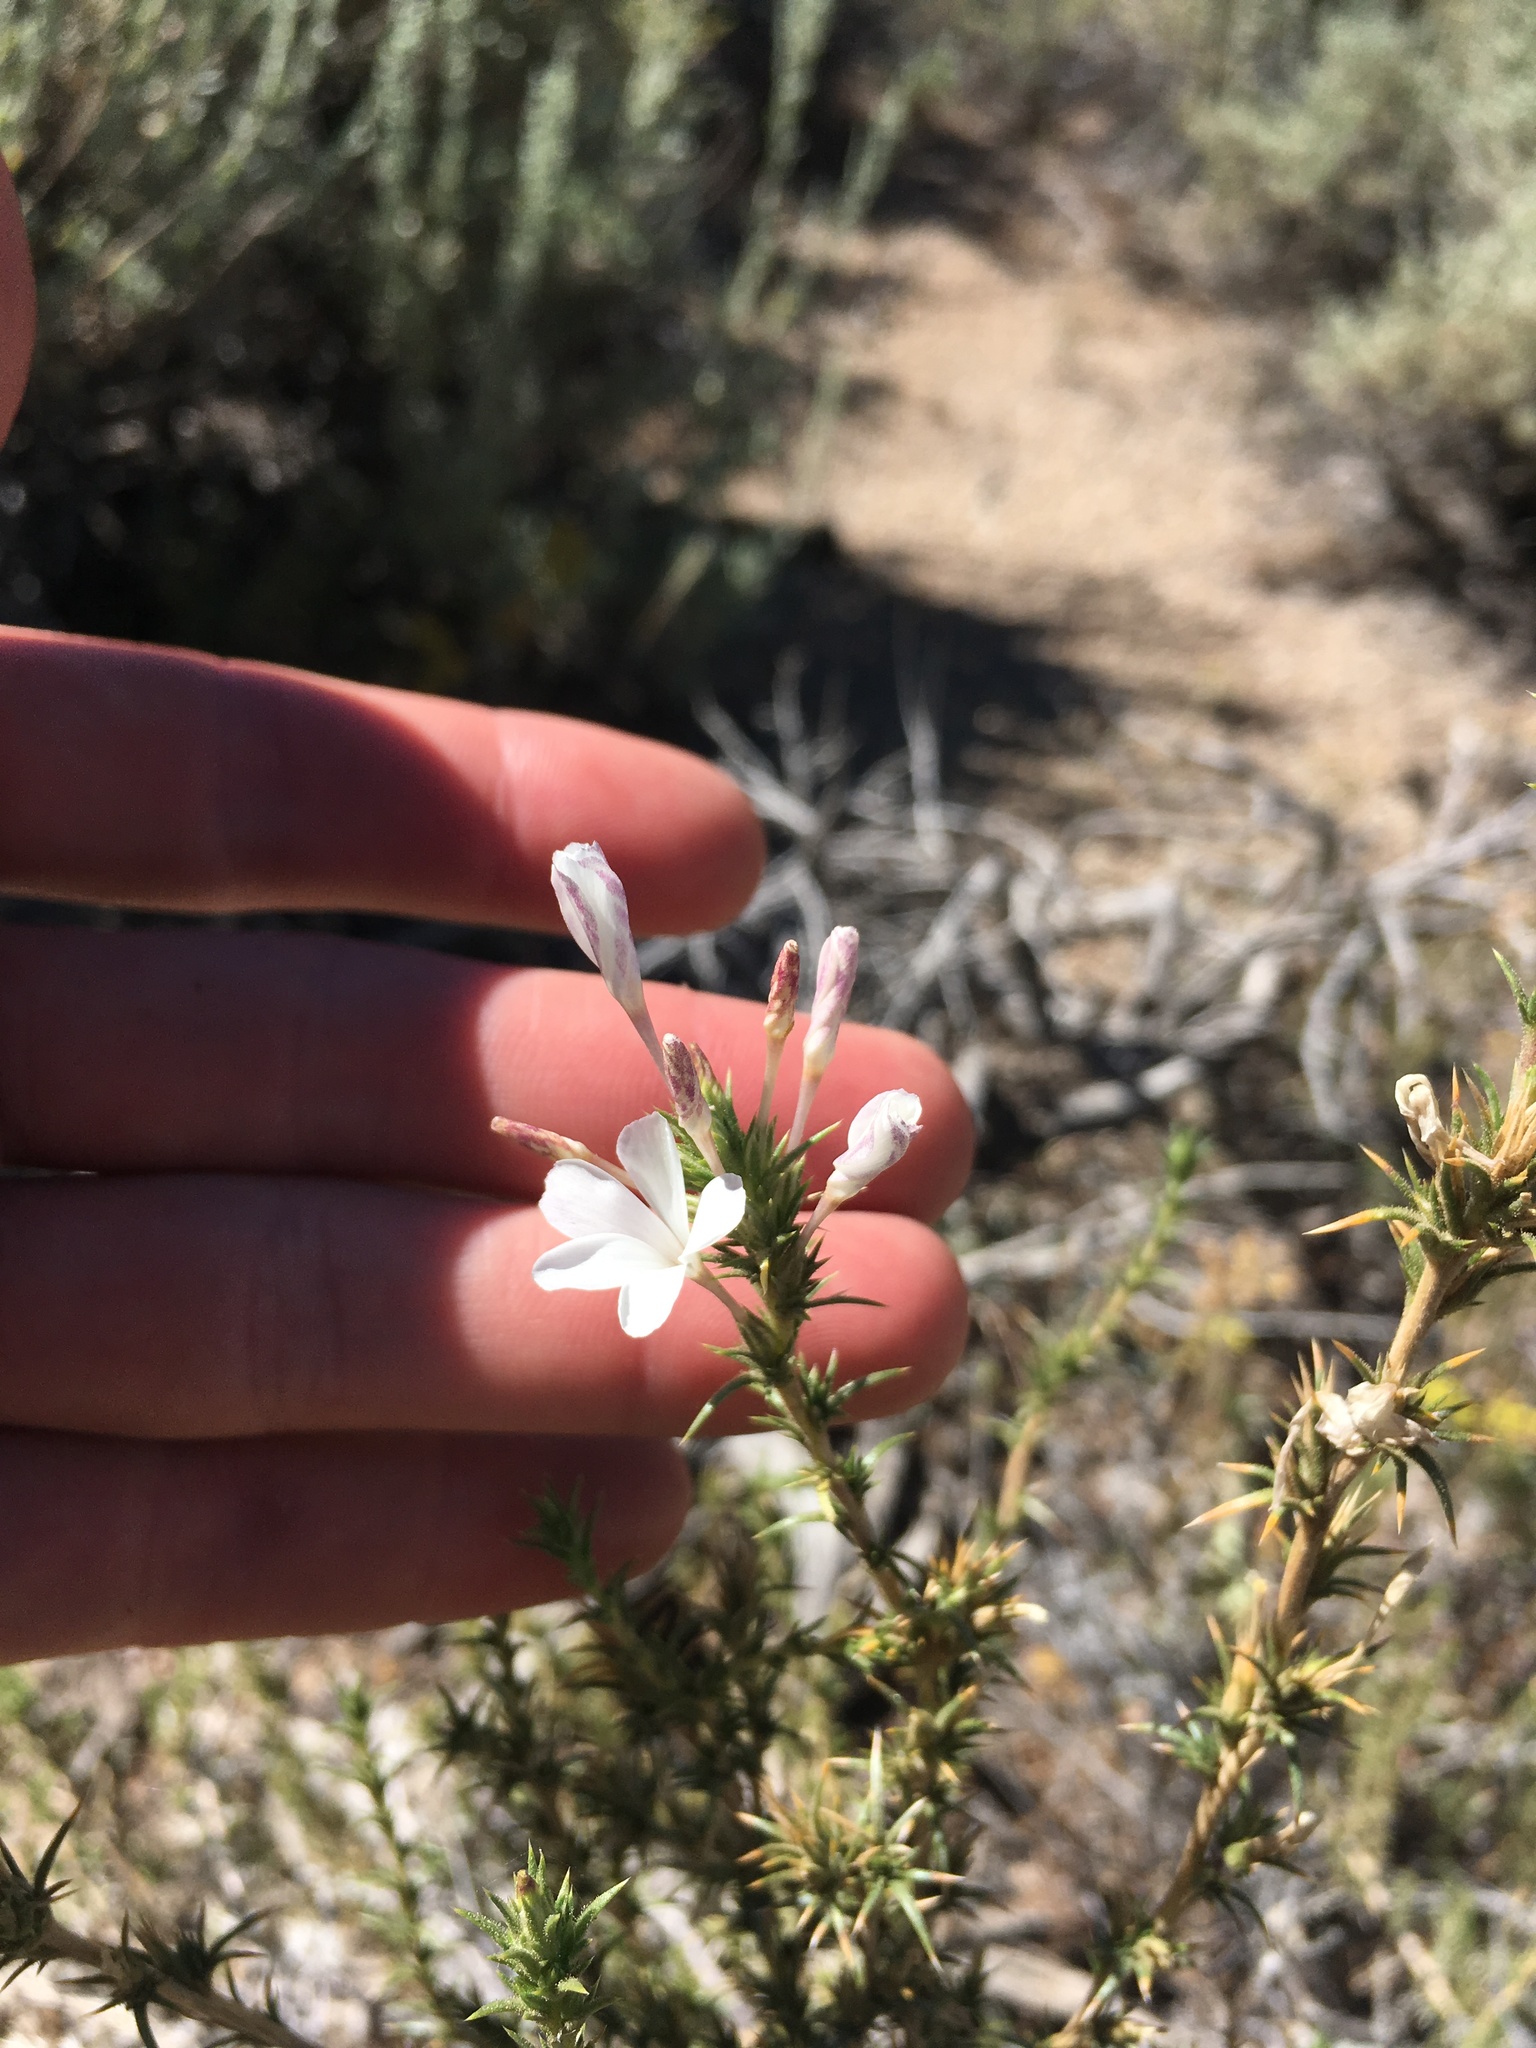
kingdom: Plantae
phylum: Tracheophyta
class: Magnoliopsida
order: Ericales
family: Polemoniaceae
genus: Linanthus
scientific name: Linanthus pungens
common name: Granite prickly phlox
